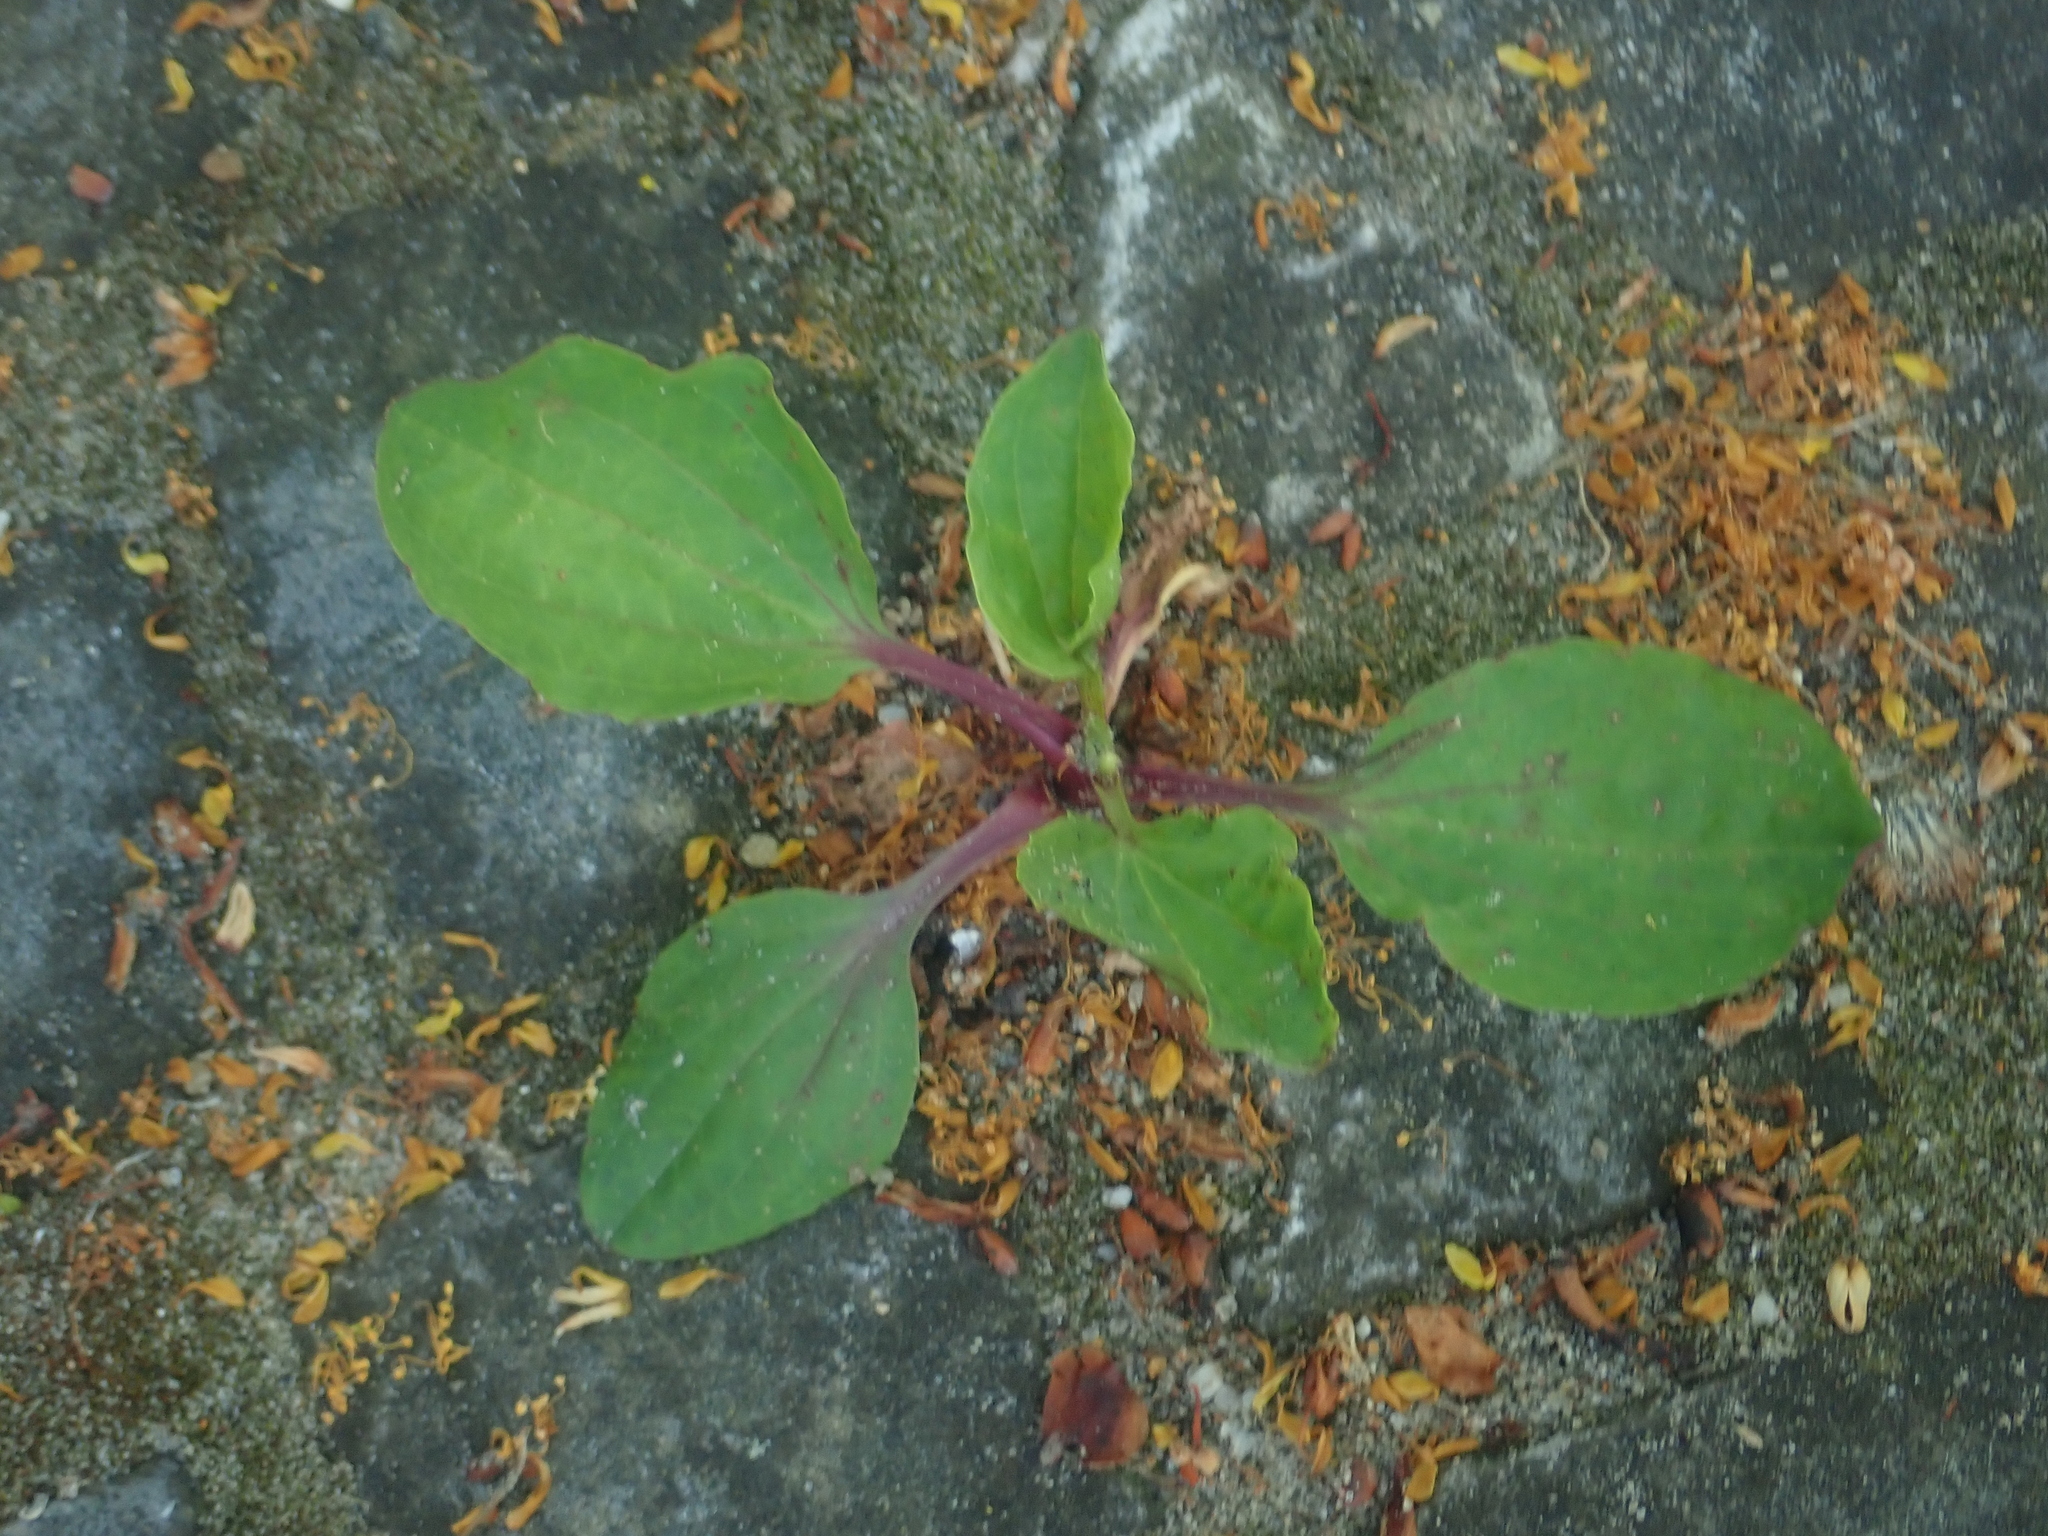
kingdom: Plantae
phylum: Tracheophyta
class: Magnoliopsida
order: Lamiales
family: Plantaginaceae
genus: Plantago
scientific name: Plantago major
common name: Common plantain
